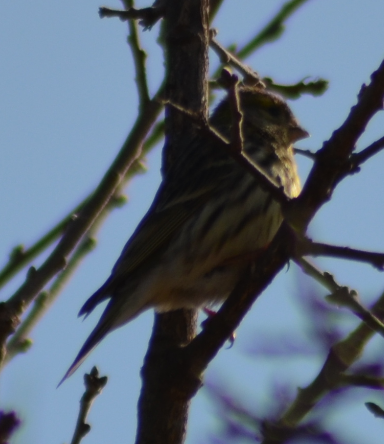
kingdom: Animalia
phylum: Chordata
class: Aves
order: Passeriformes
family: Fringillidae
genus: Serinus
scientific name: Serinus serinus
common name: European serin
